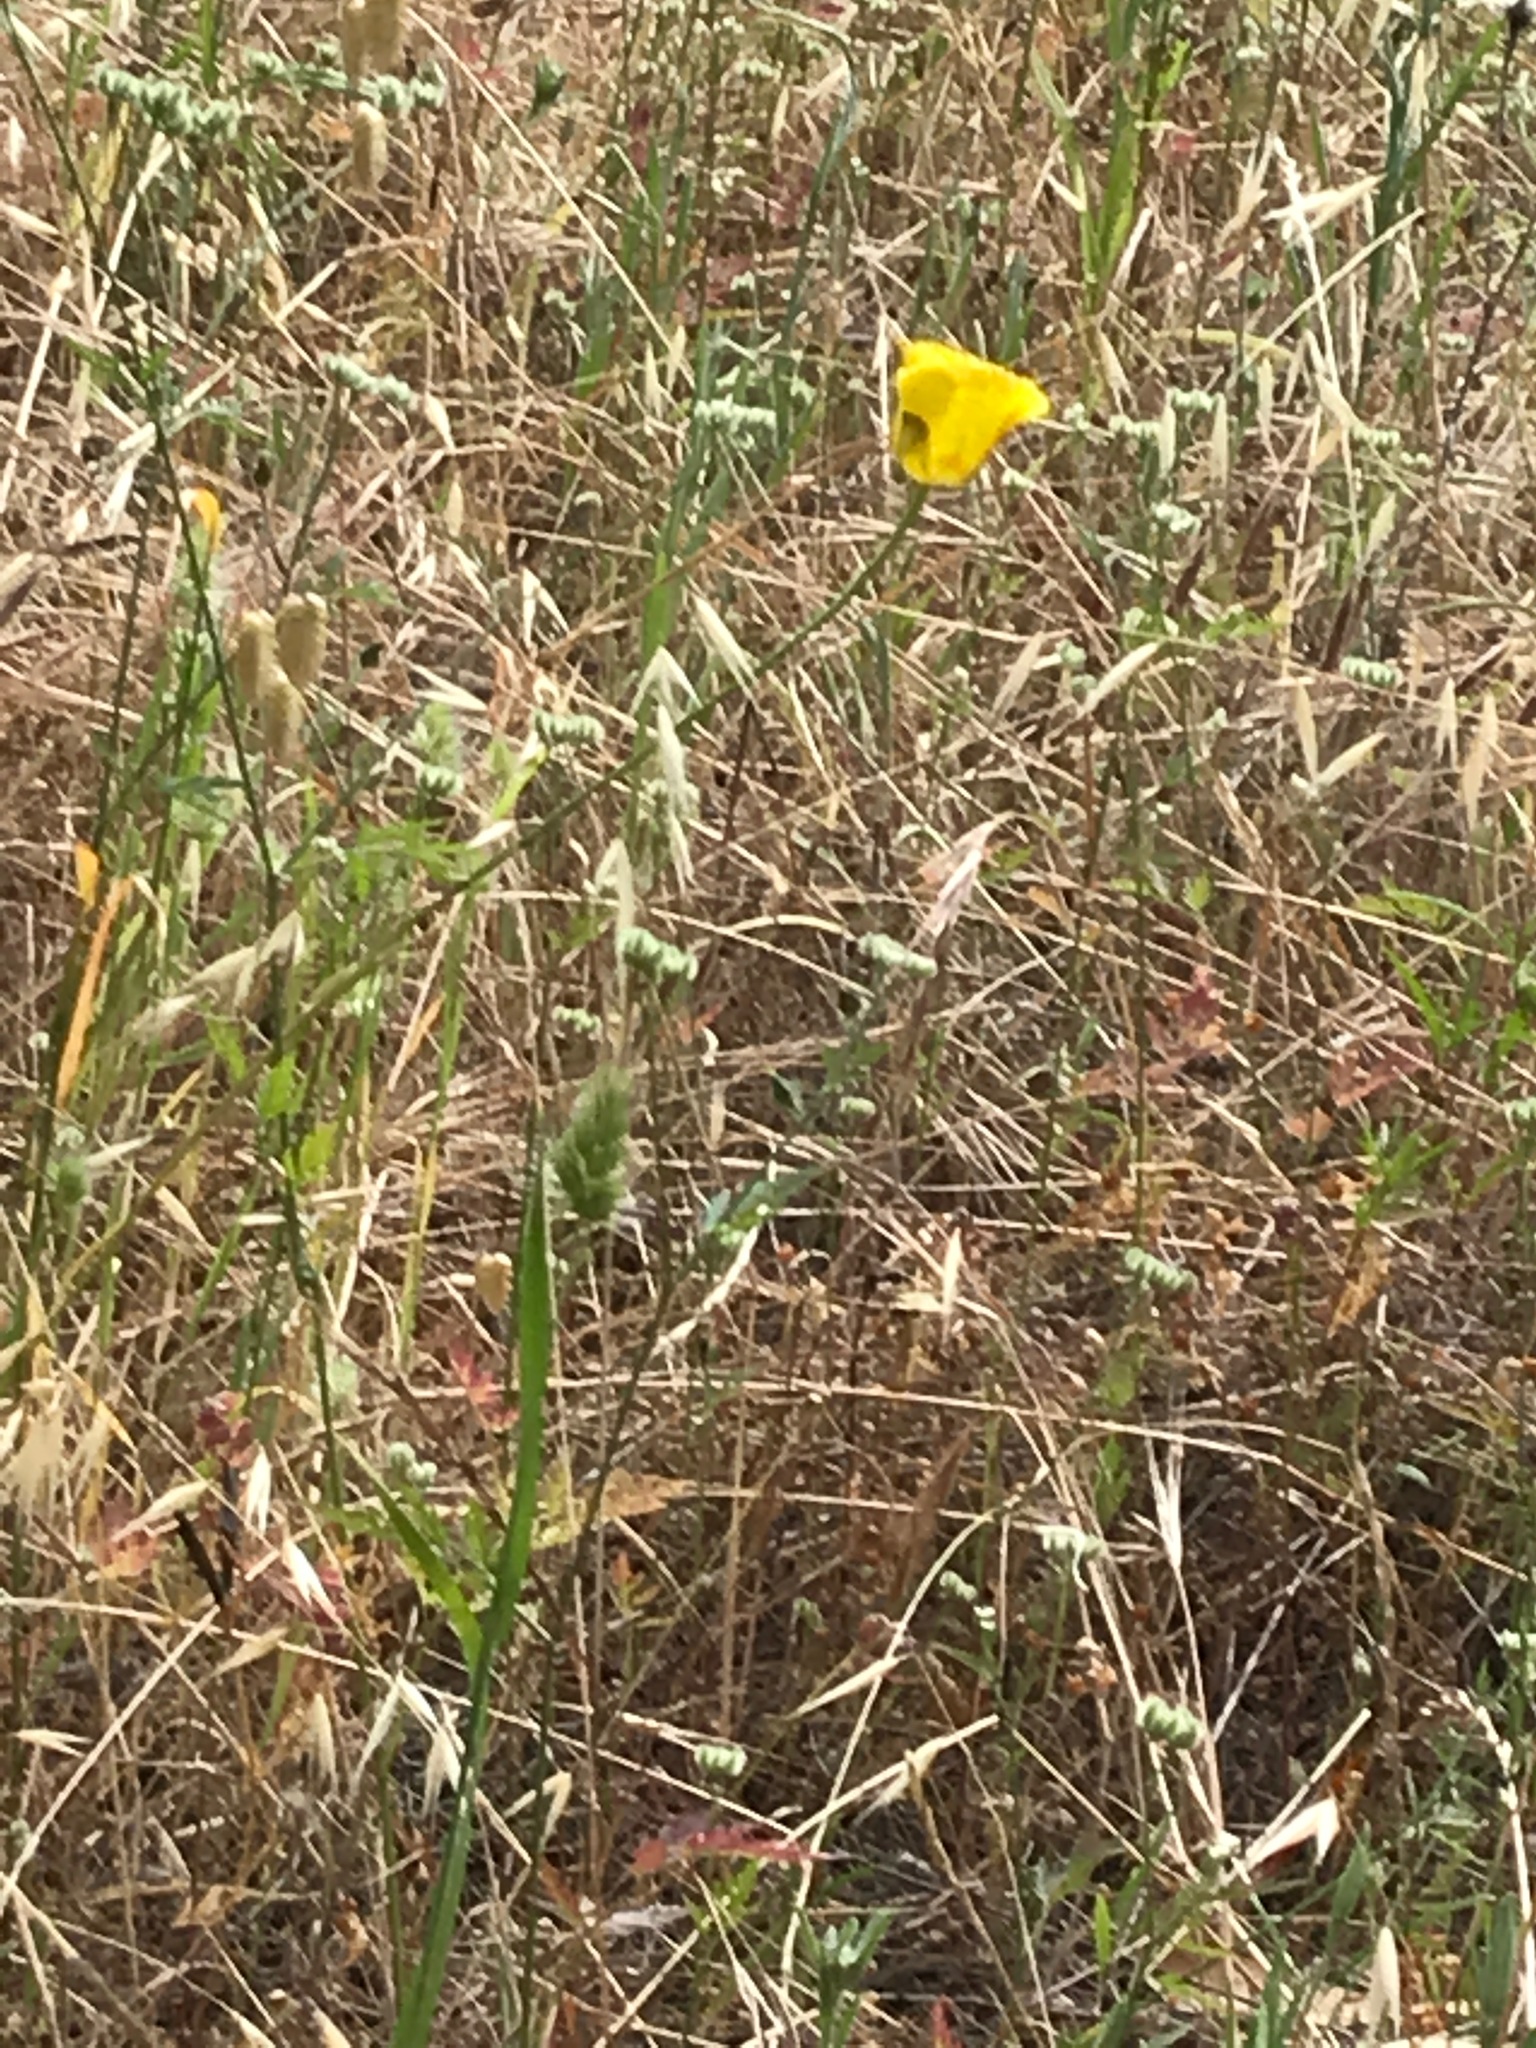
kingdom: Plantae
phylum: Tracheophyta
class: Liliopsida
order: Liliales
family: Liliaceae
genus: Calochortus
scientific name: Calochortus luteus
